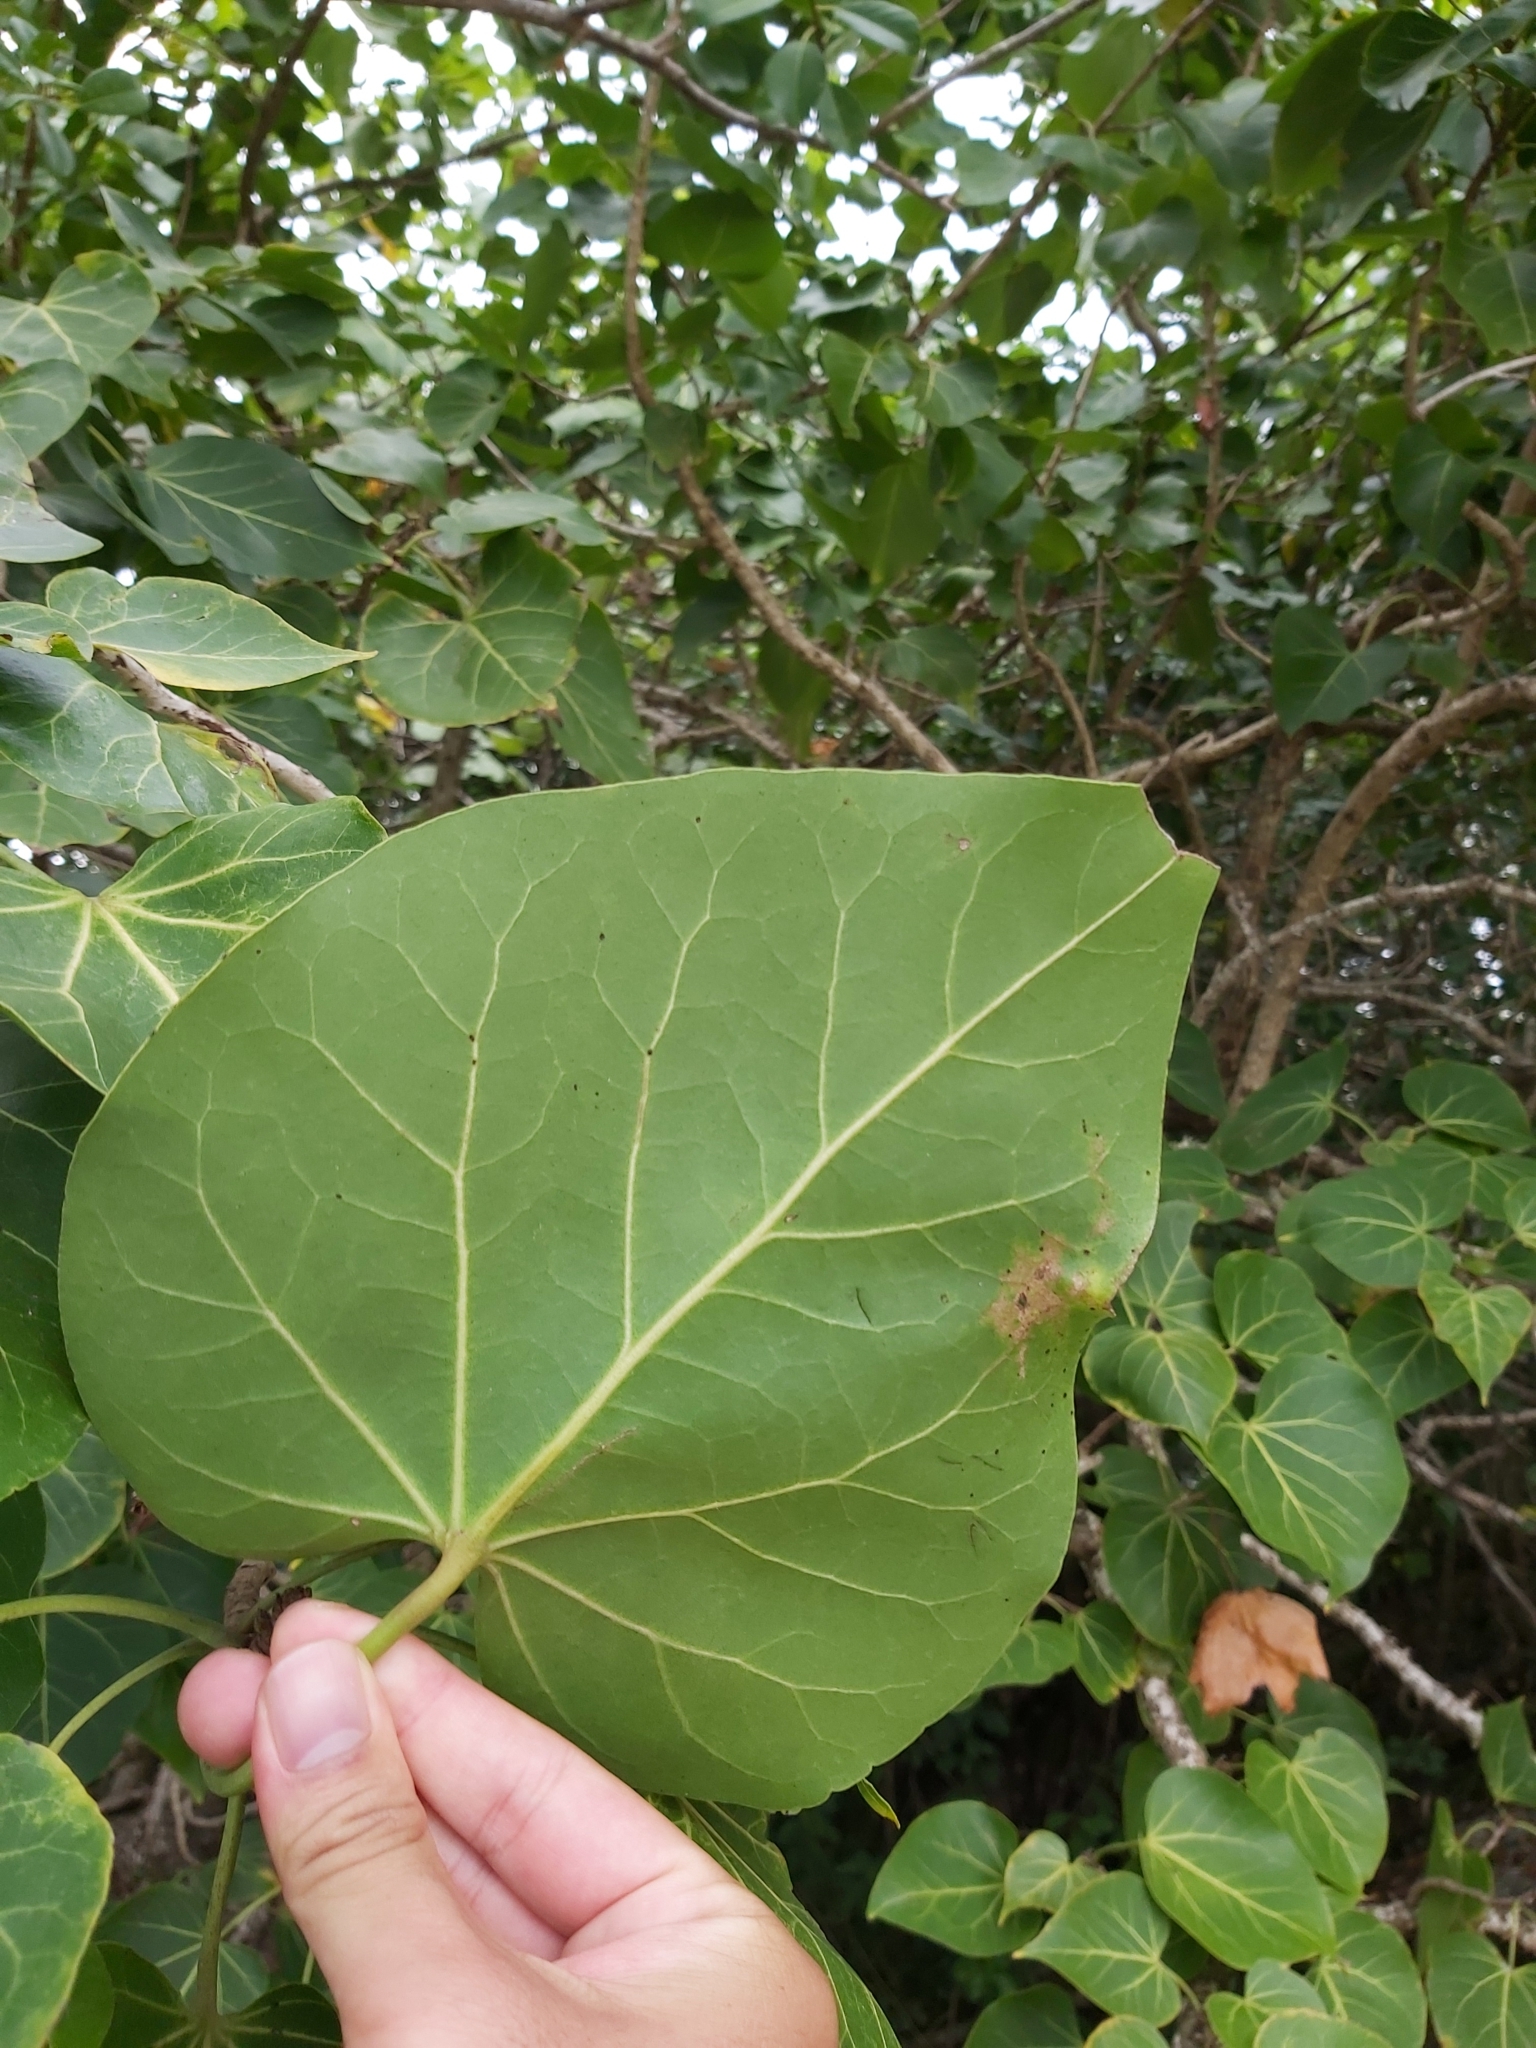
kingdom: Plantae
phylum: Tracheophyta
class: Magnoliopsida
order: Malvales
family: Malvaceae
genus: Talipariti
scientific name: Talipariti tiliaceum
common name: Sea hibiscus
